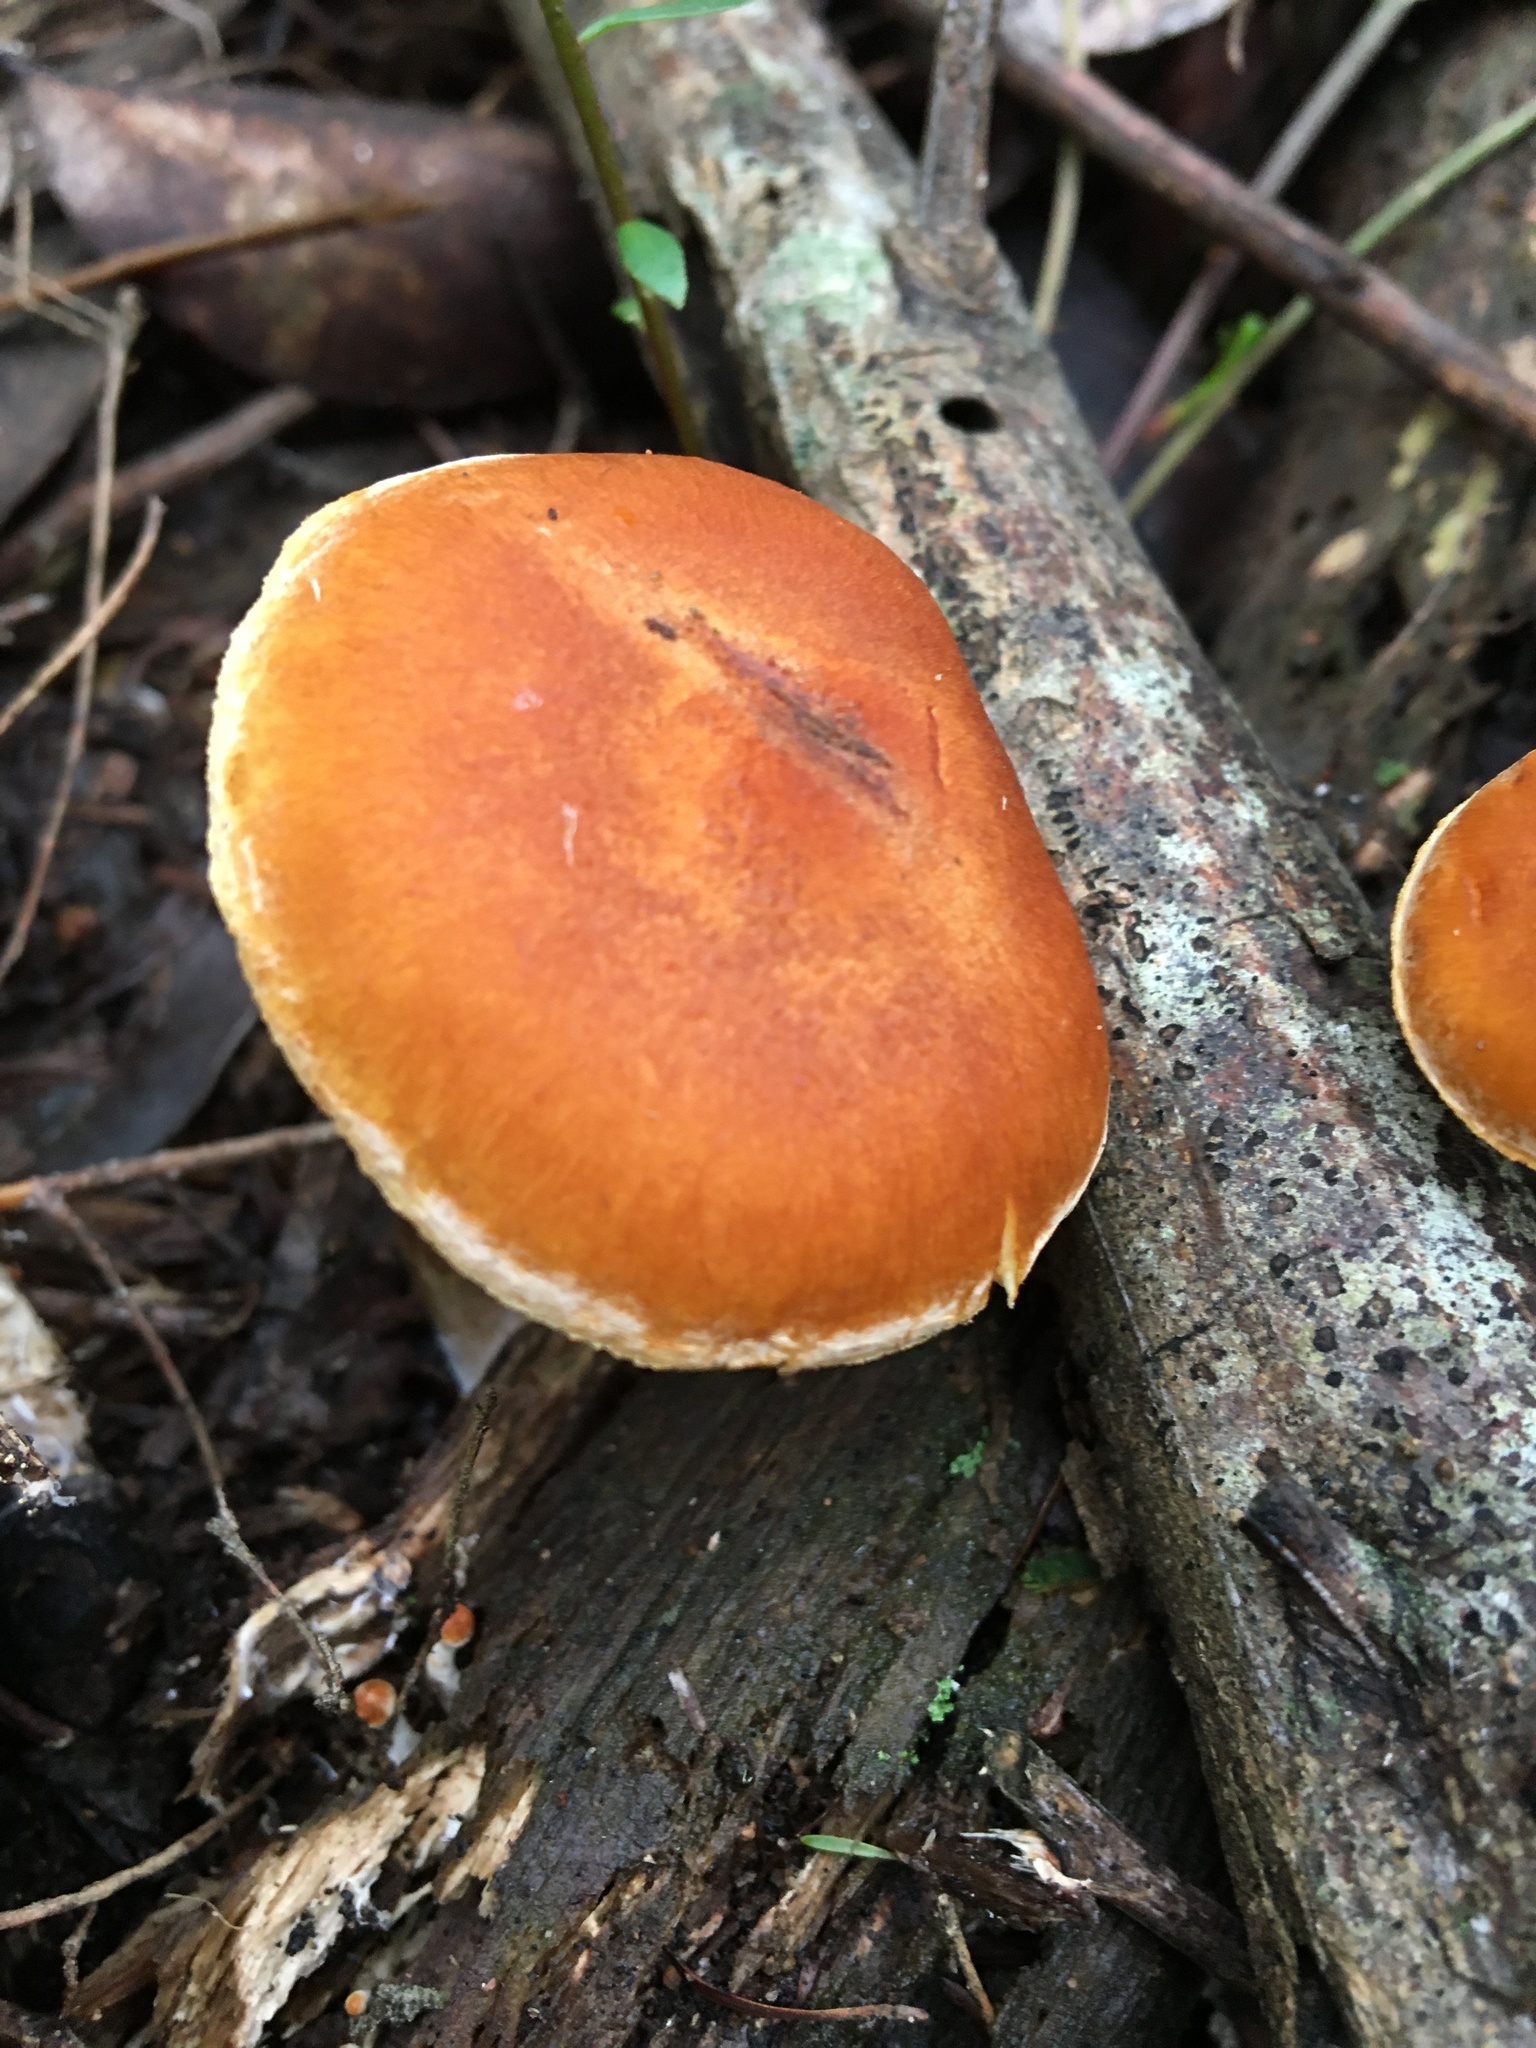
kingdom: Fungi
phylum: Basidiomycota
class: Agaricomycetes
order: Agaricales
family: Hymenogastraceae
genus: Gymnopilus
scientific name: Gymnopilus allantopus
